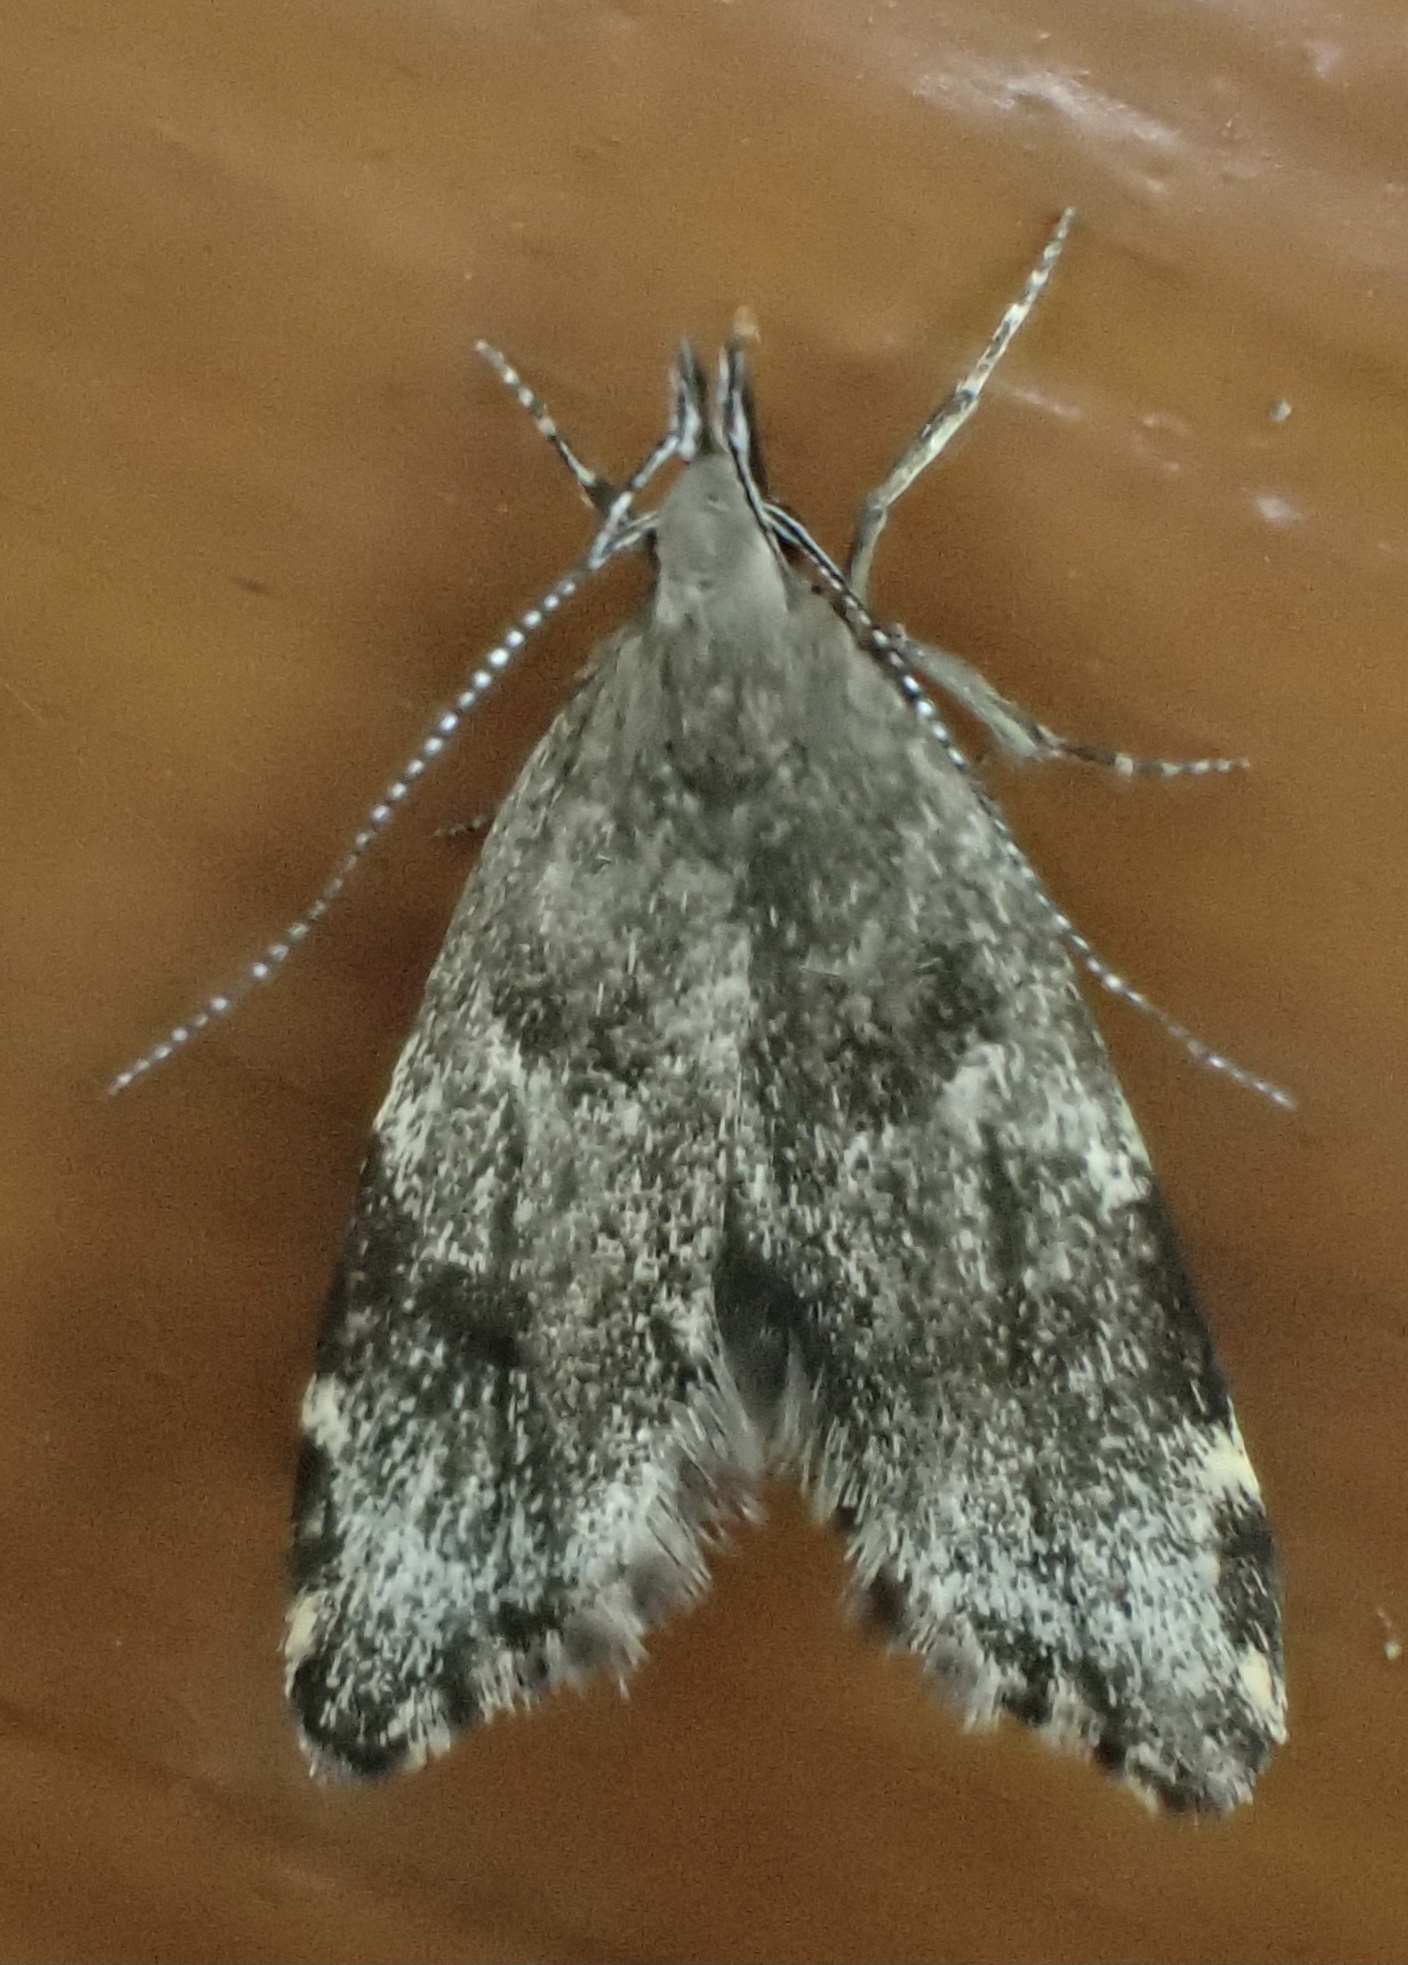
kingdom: Animalia
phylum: Arthropoda
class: Insecta
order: Lepidoptera
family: Oecophoridae
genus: Eido
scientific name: Eido trimaculella
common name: Three-spotted concealer
